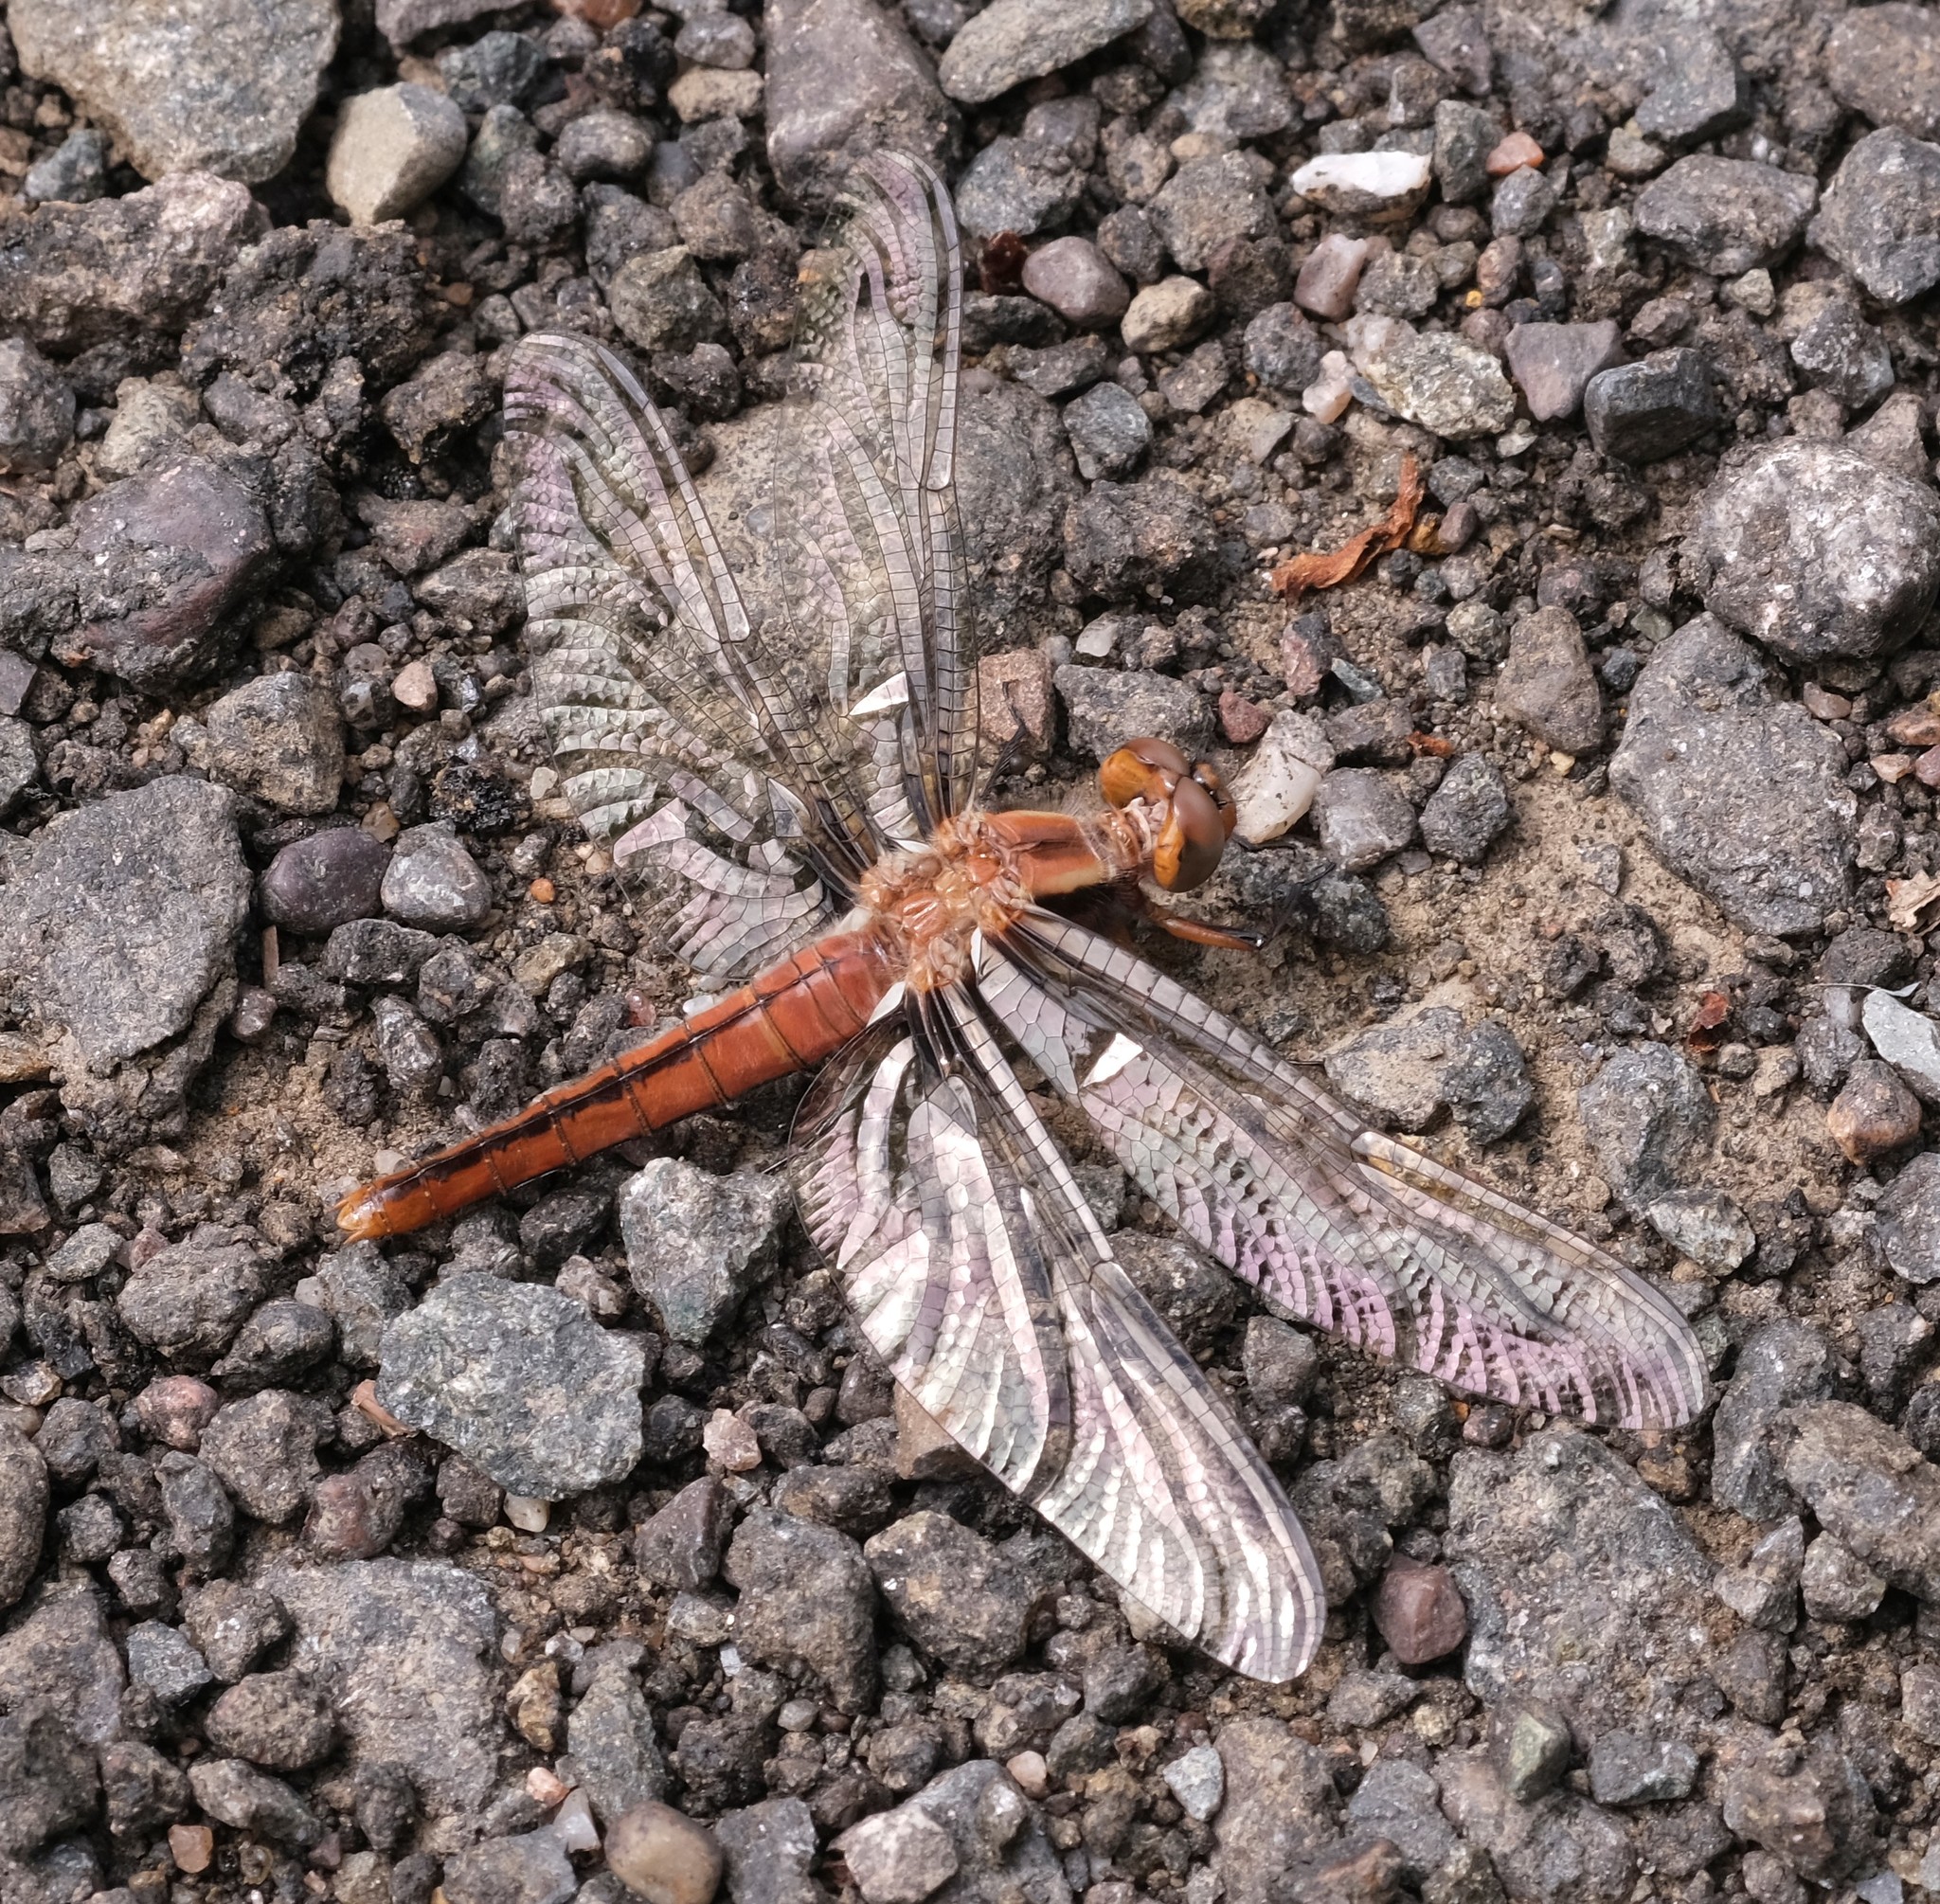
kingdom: Animalia
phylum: Arthropoda
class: Insecta
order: Odonata
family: Libellulidae
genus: Ladona
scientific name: Ladona julia
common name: Chalk-fronted corporal
